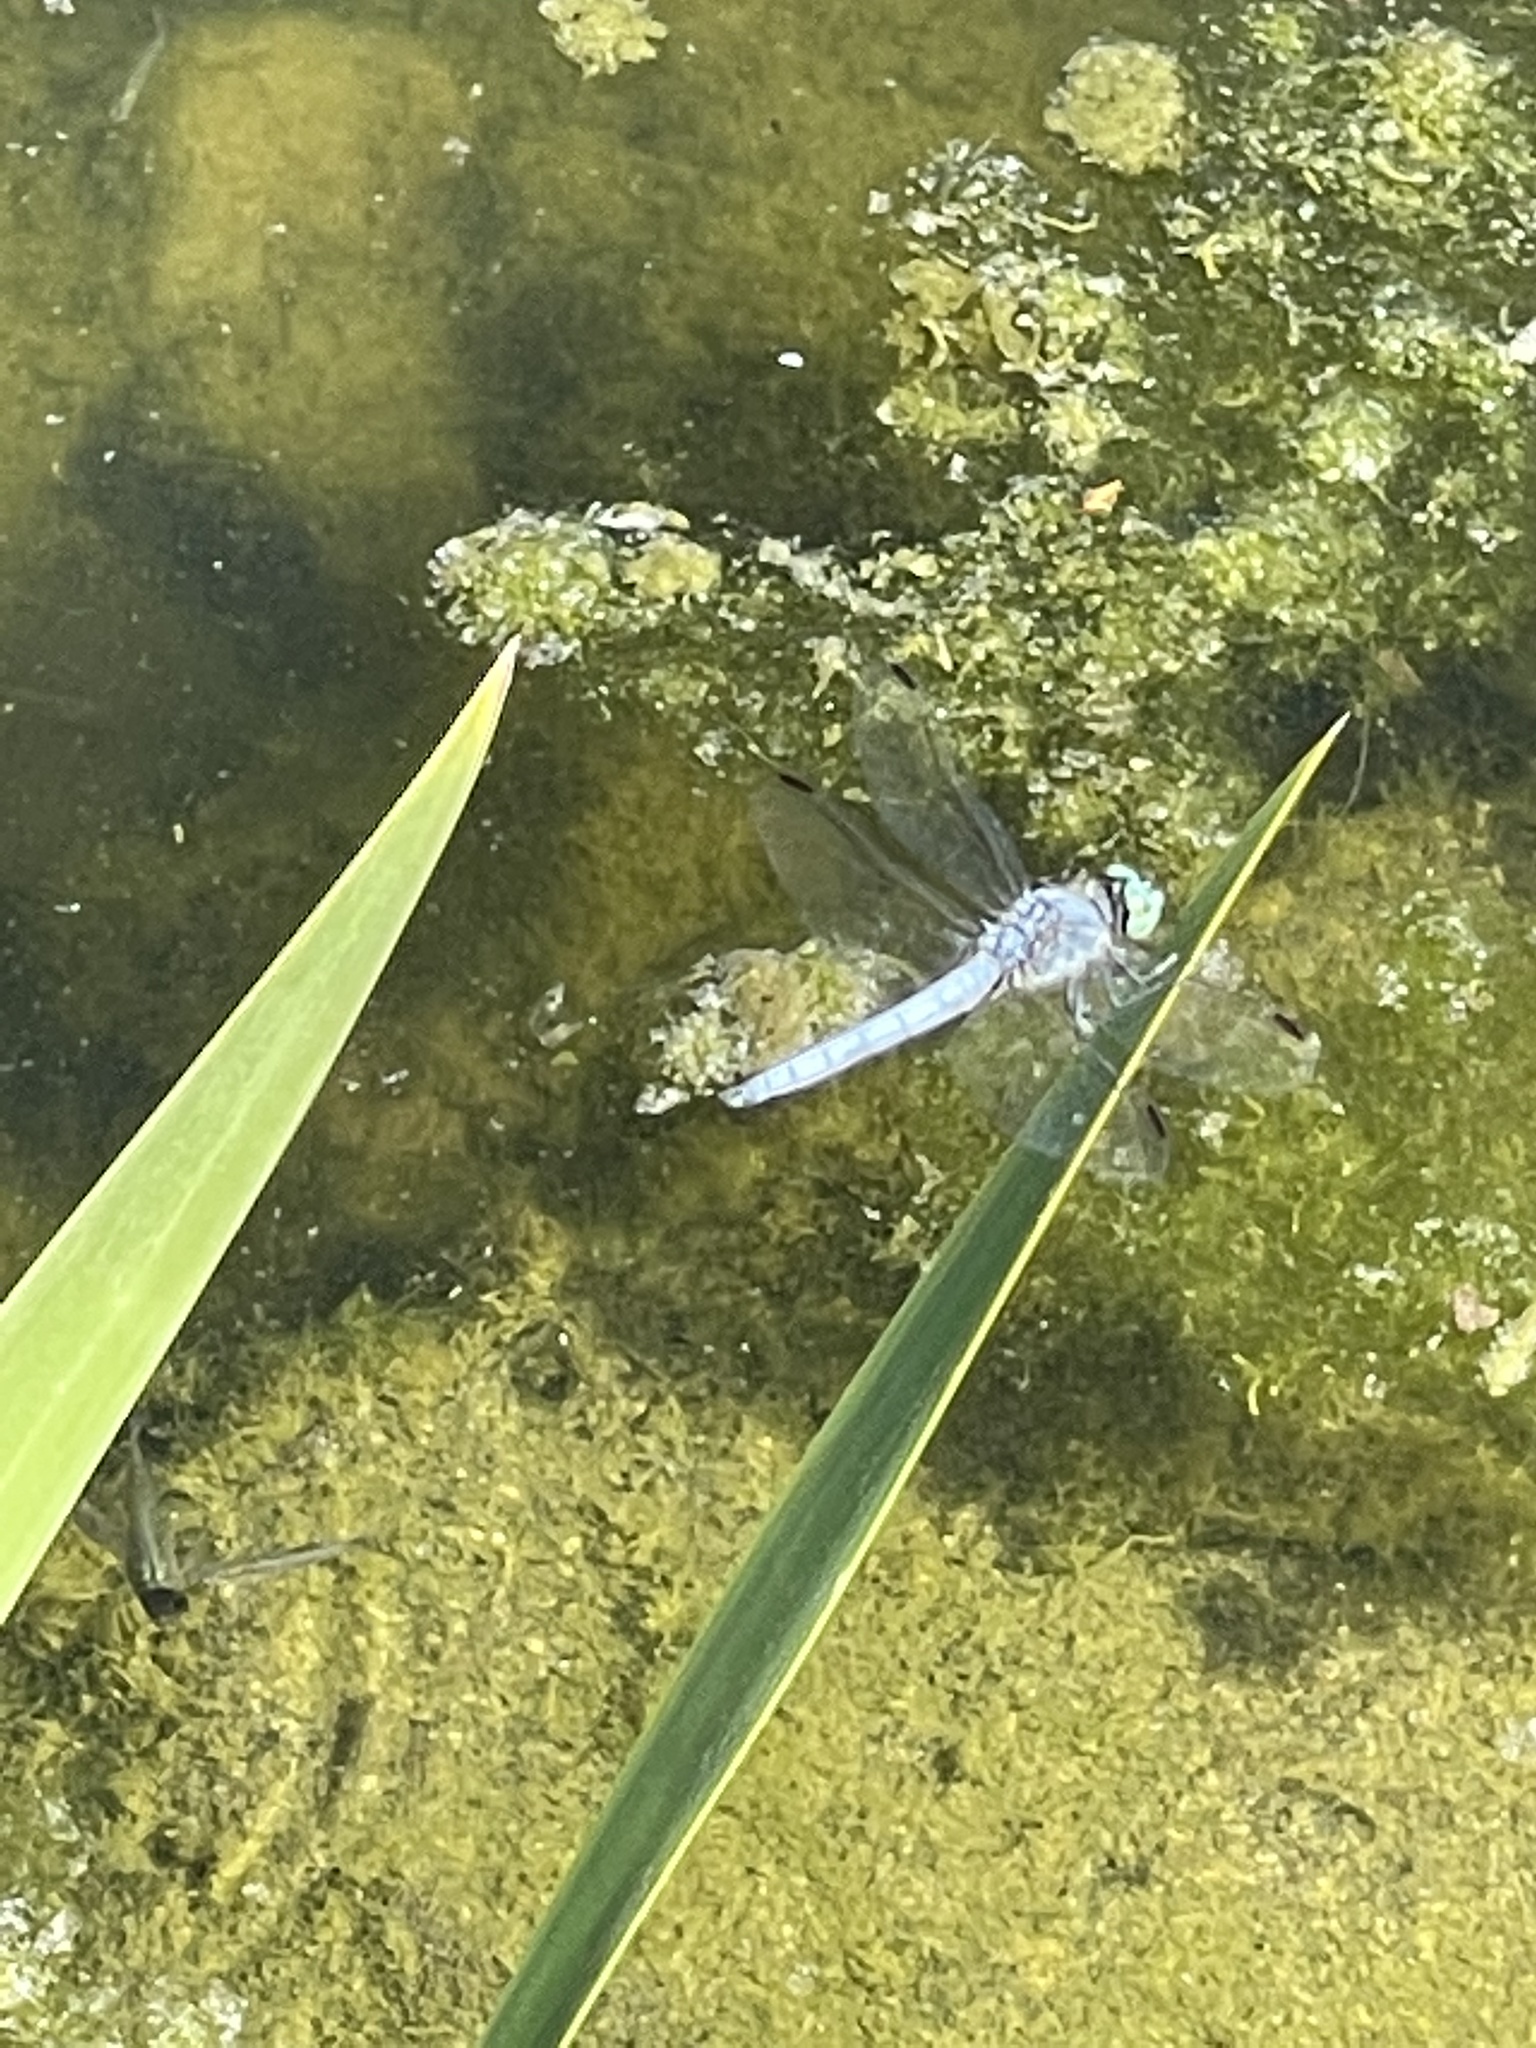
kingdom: Animalia
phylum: Arthropoda
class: Insecta
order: Odonata
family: Libellulidae
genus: Pachydiplax
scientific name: Pachydiplax longipennis
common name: Blue dasher
